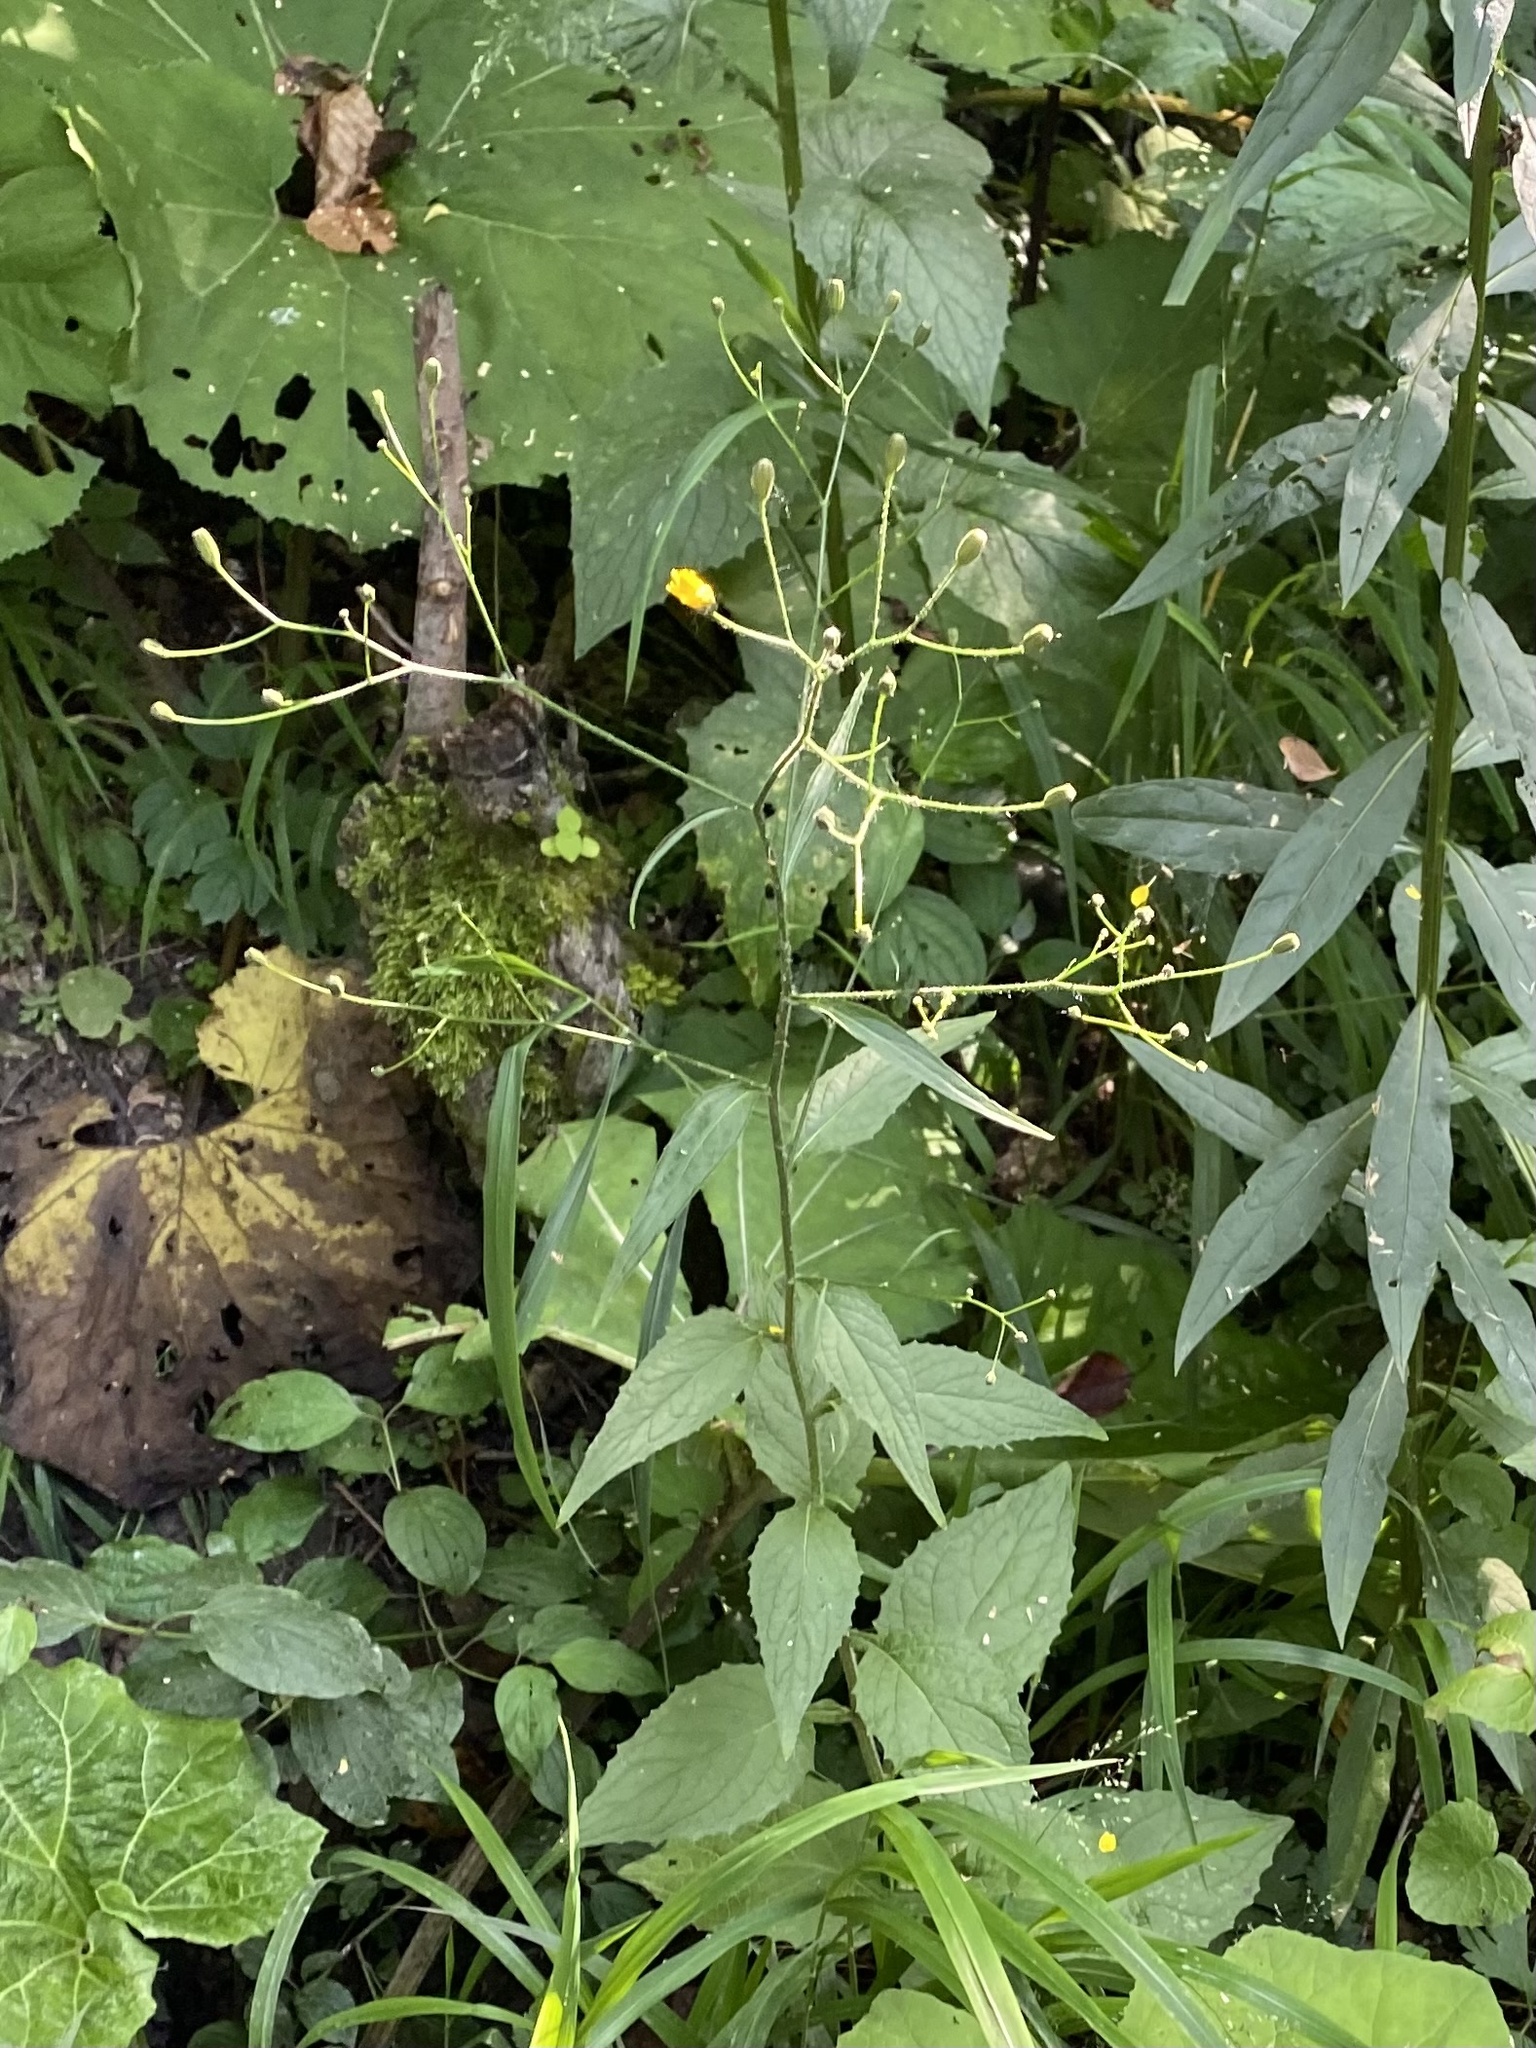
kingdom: Plantae
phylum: Tracheophyta
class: Magnoliopsida
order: Asterales
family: Asteraceae
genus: Lapsana
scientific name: Lapsana communis
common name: Nipplewort
